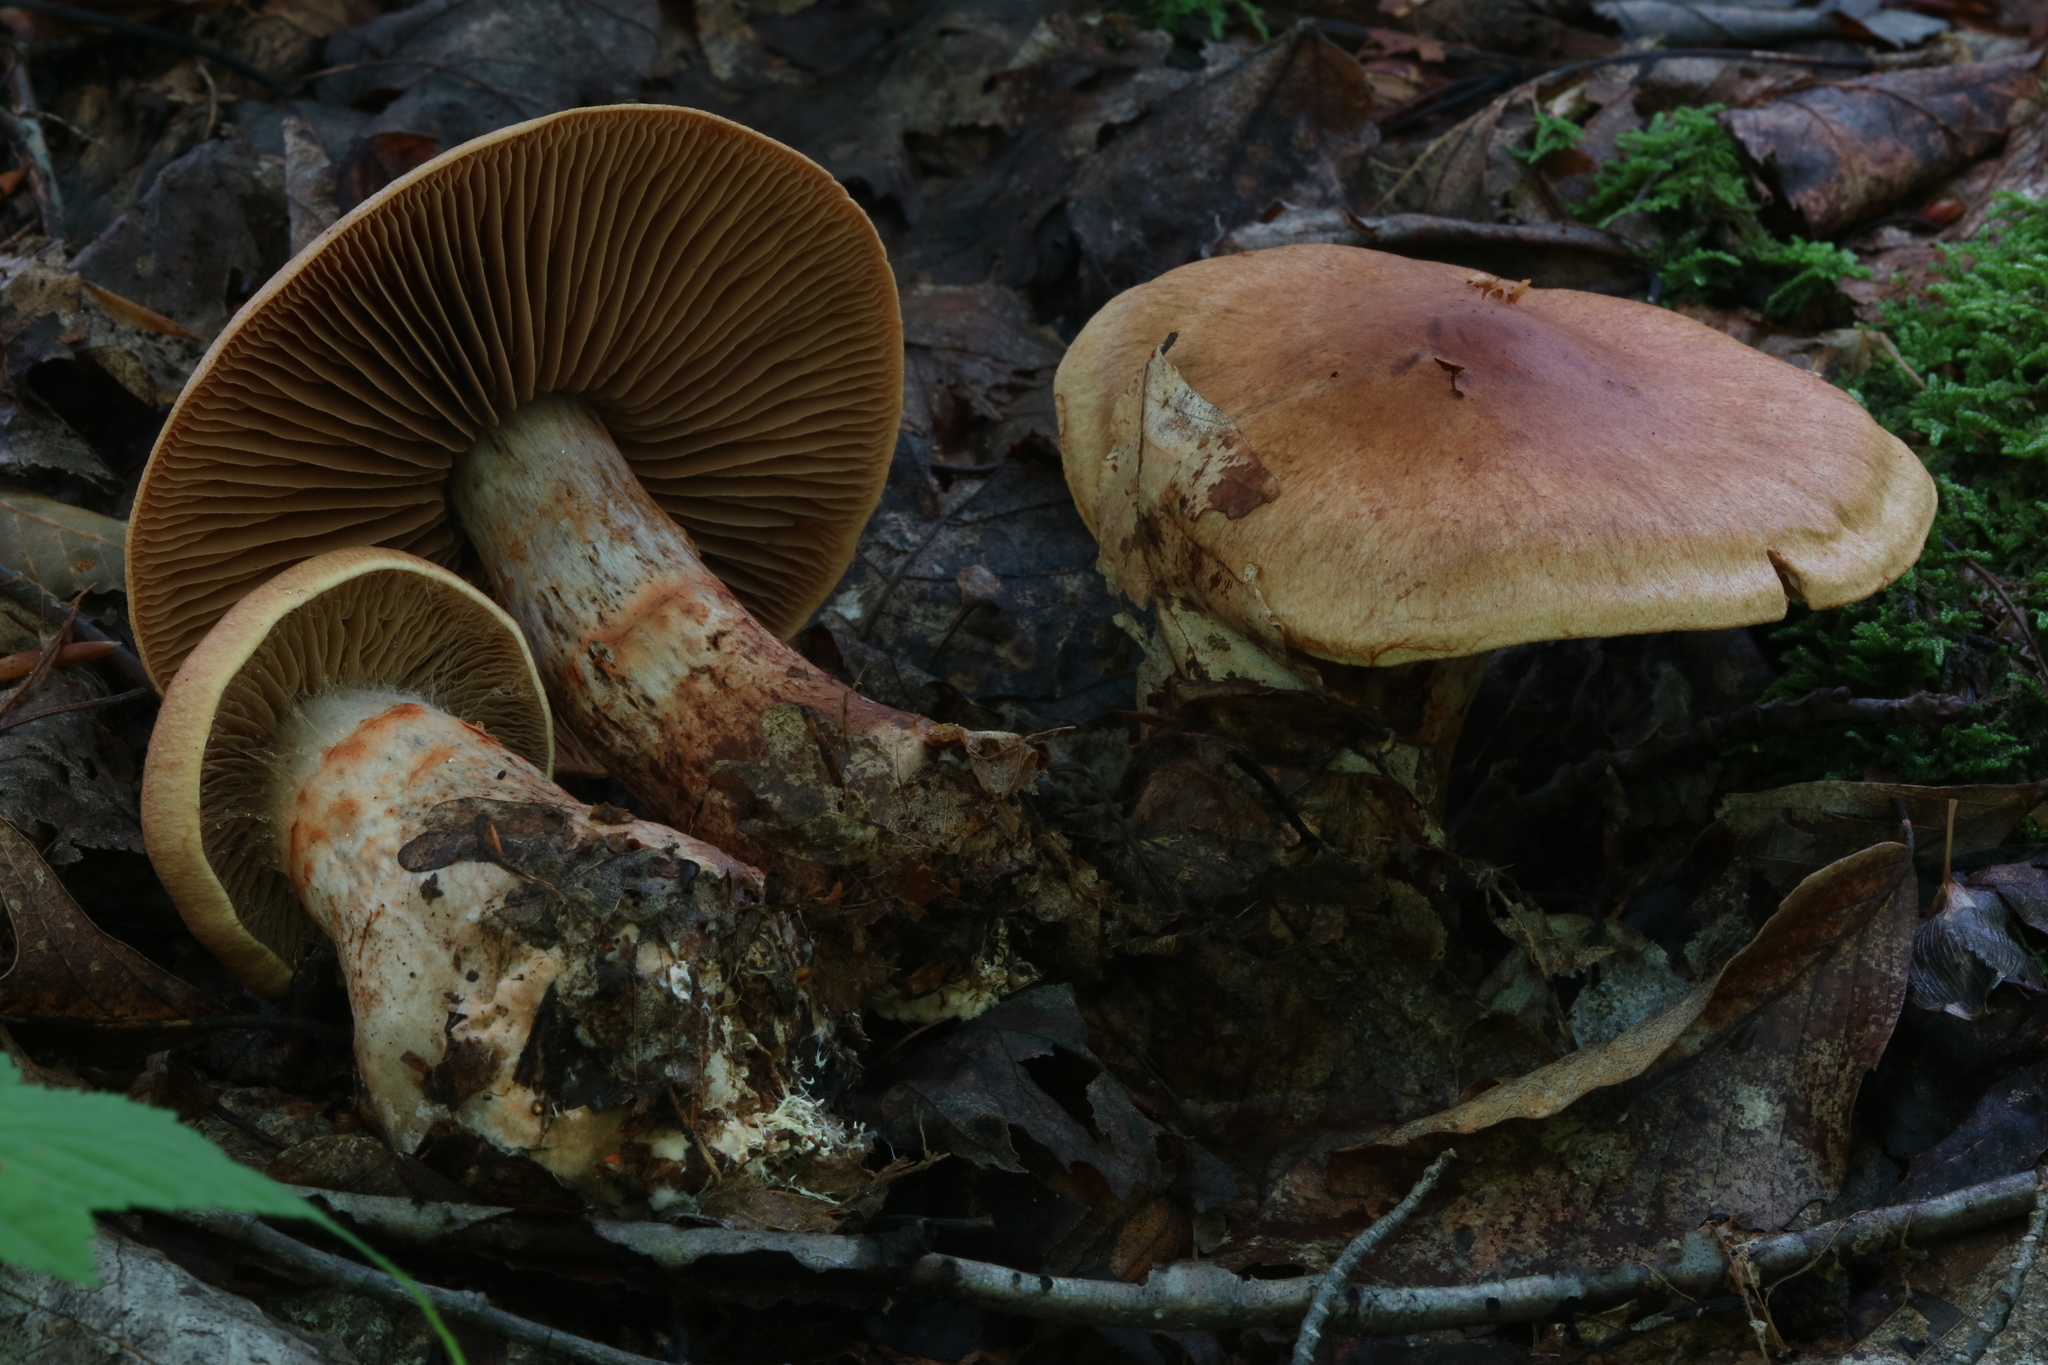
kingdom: Fungi
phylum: Basidiomycota
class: Agaricomycetes
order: Agaricales
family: Cortinariaceae
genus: Cortinarius
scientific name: Cortinarius armillatus
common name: Red banded webcap
